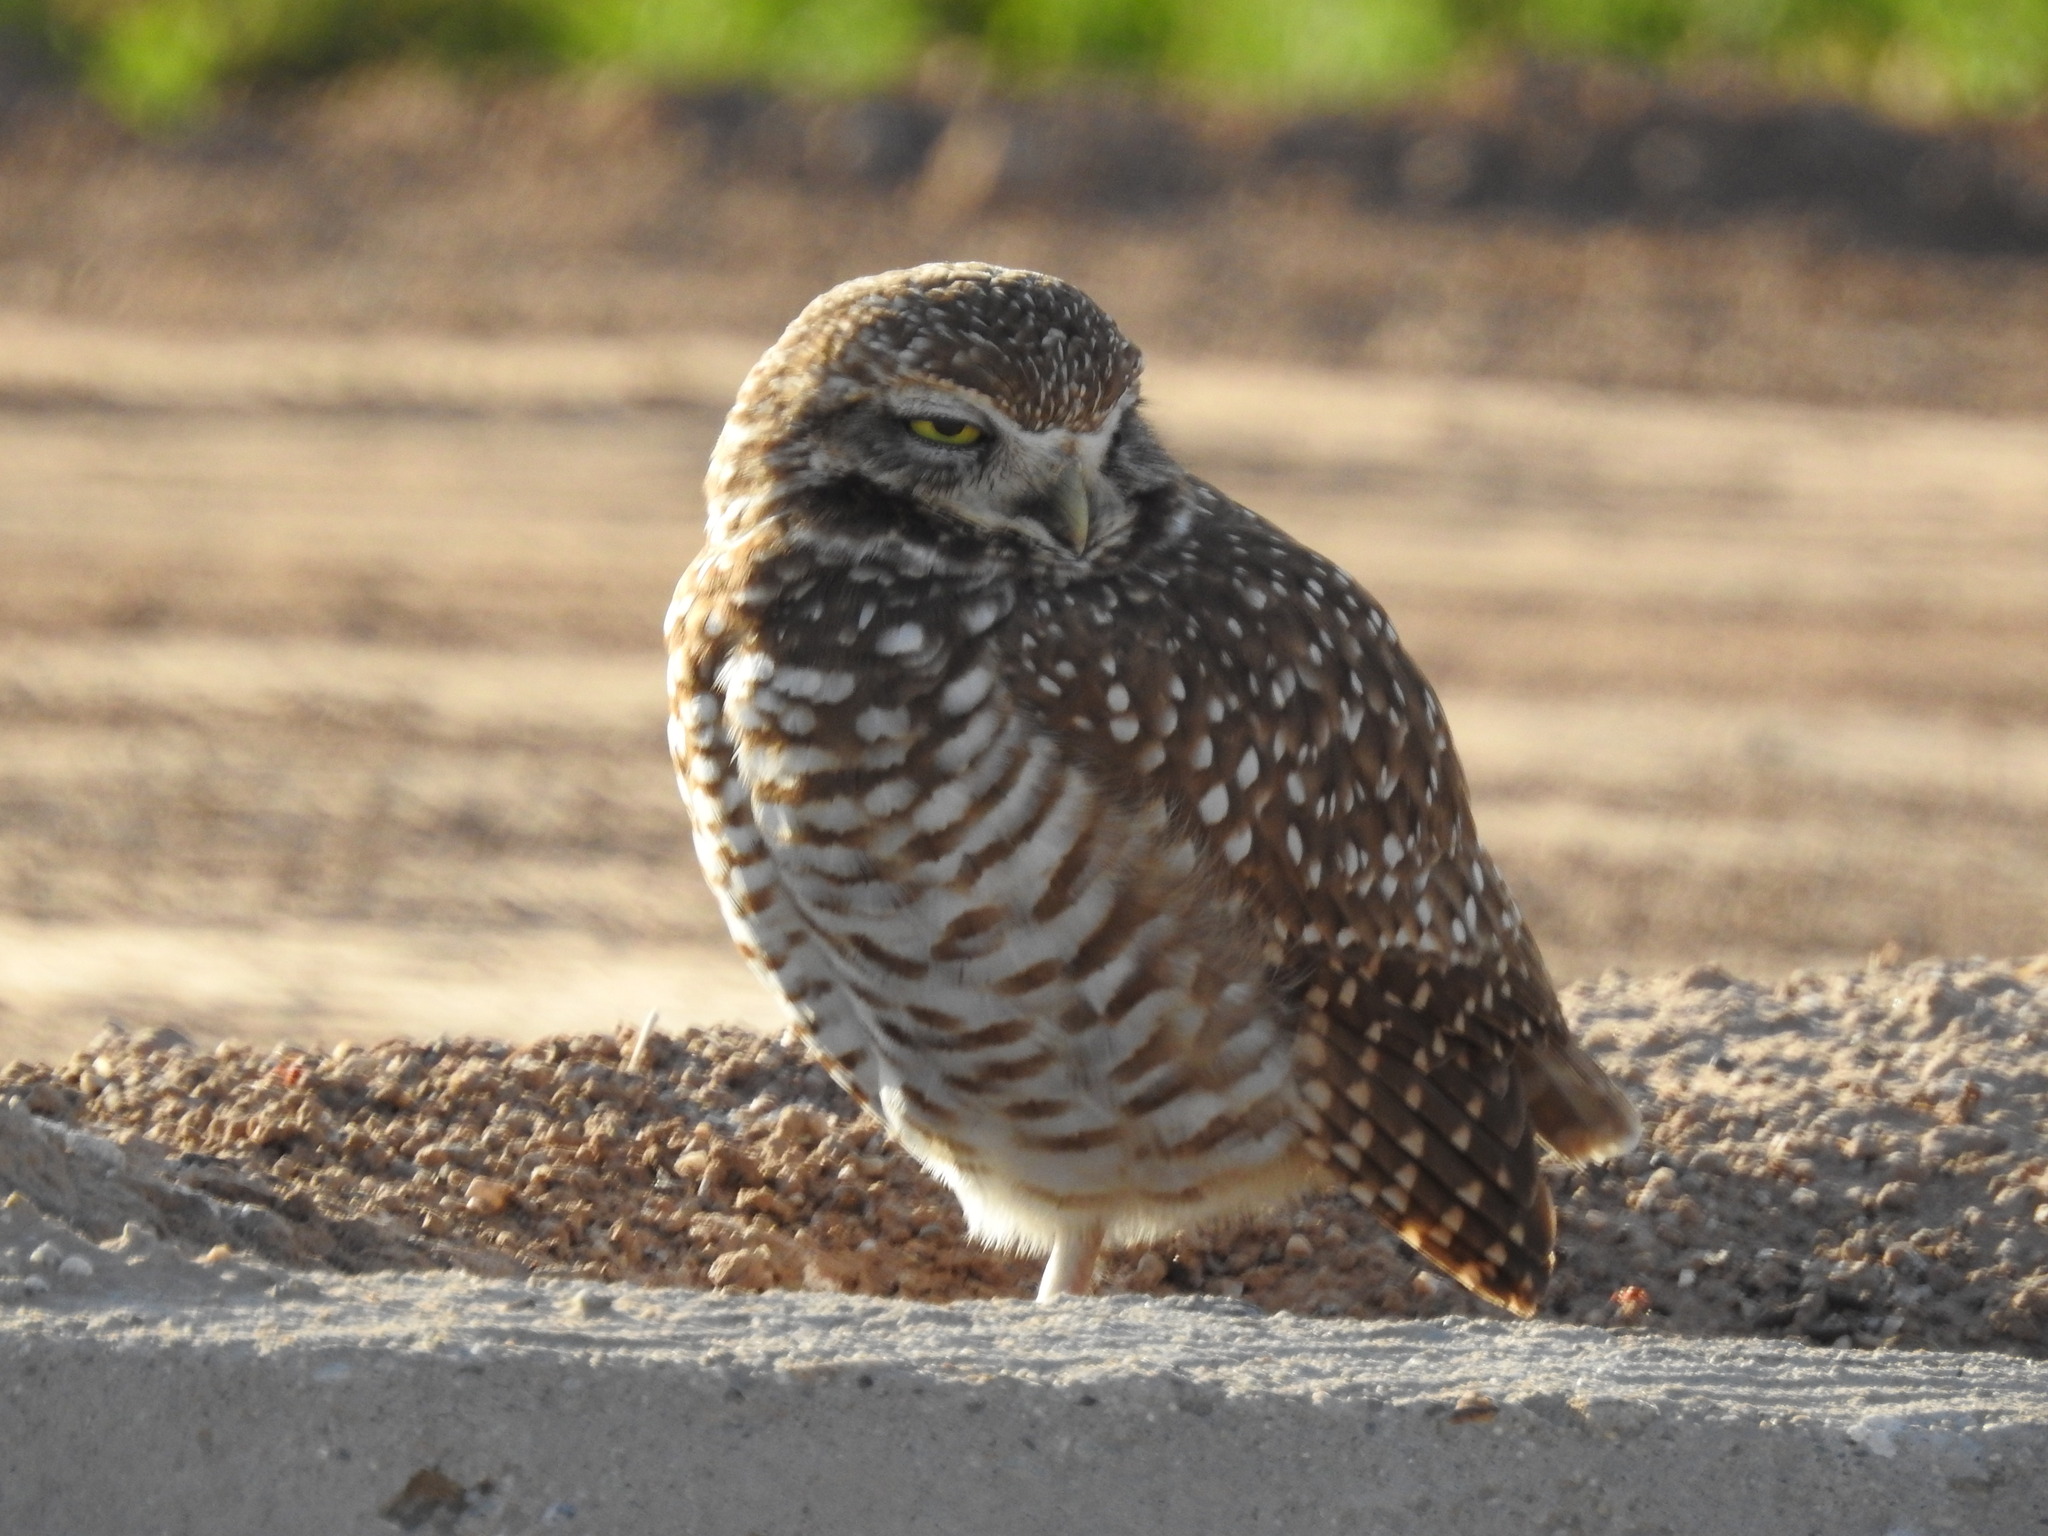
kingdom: Animalia
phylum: Chordata
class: Aves
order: Strigiformes
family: Strigidae
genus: Athene
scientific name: Athene cunicularia
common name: Burrowing owl
